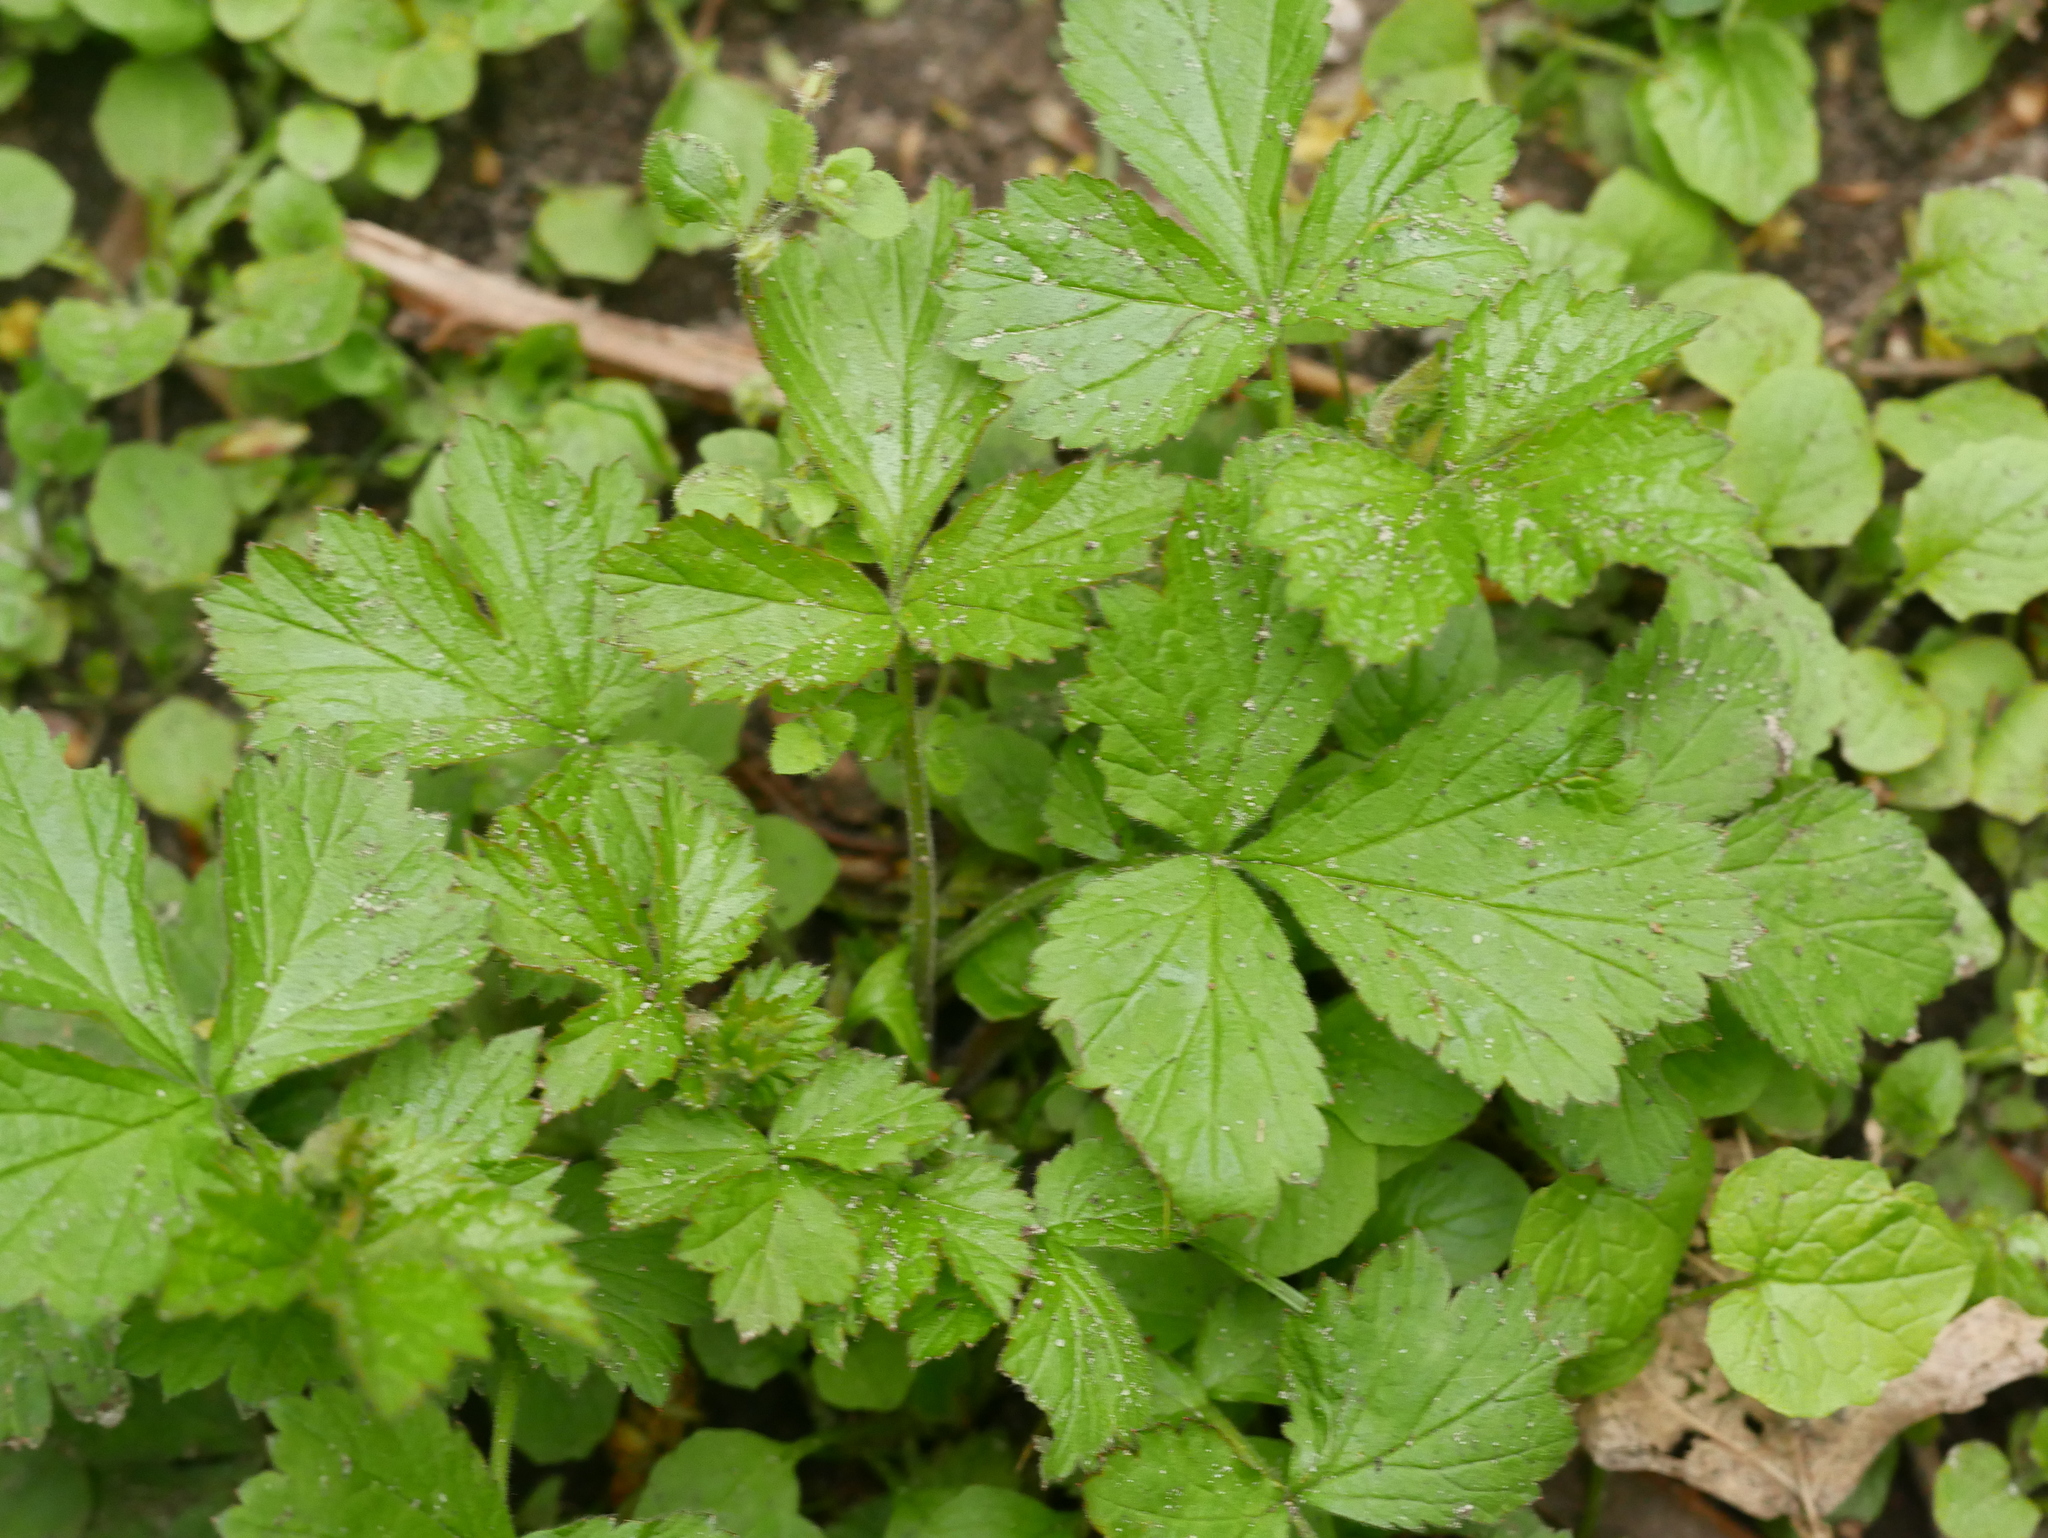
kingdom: Plantae
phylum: Tracheophyta
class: Magnoliopsida
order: Rosales
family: Rosaceae
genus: Geum
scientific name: Geum urbanum
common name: Wood avens
